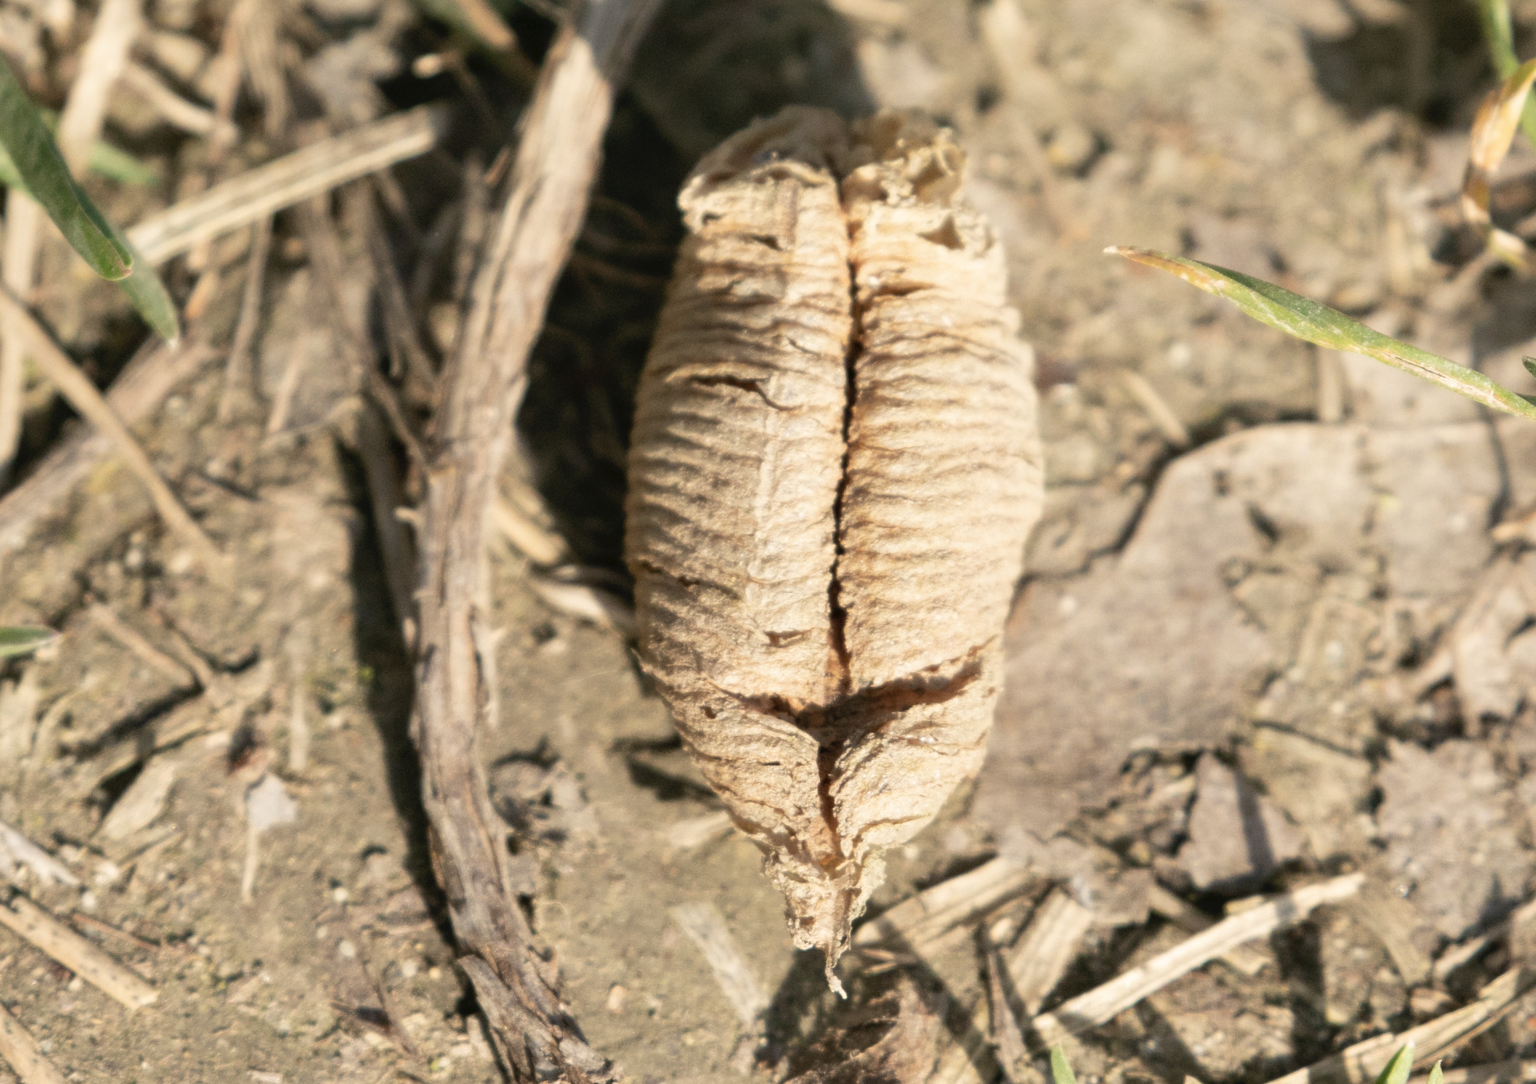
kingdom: Animalia
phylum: Arthropoda
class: Insecta
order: Mantodea
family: Mantidae
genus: Mantis
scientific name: Mantis religiosa
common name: Praying mantis
